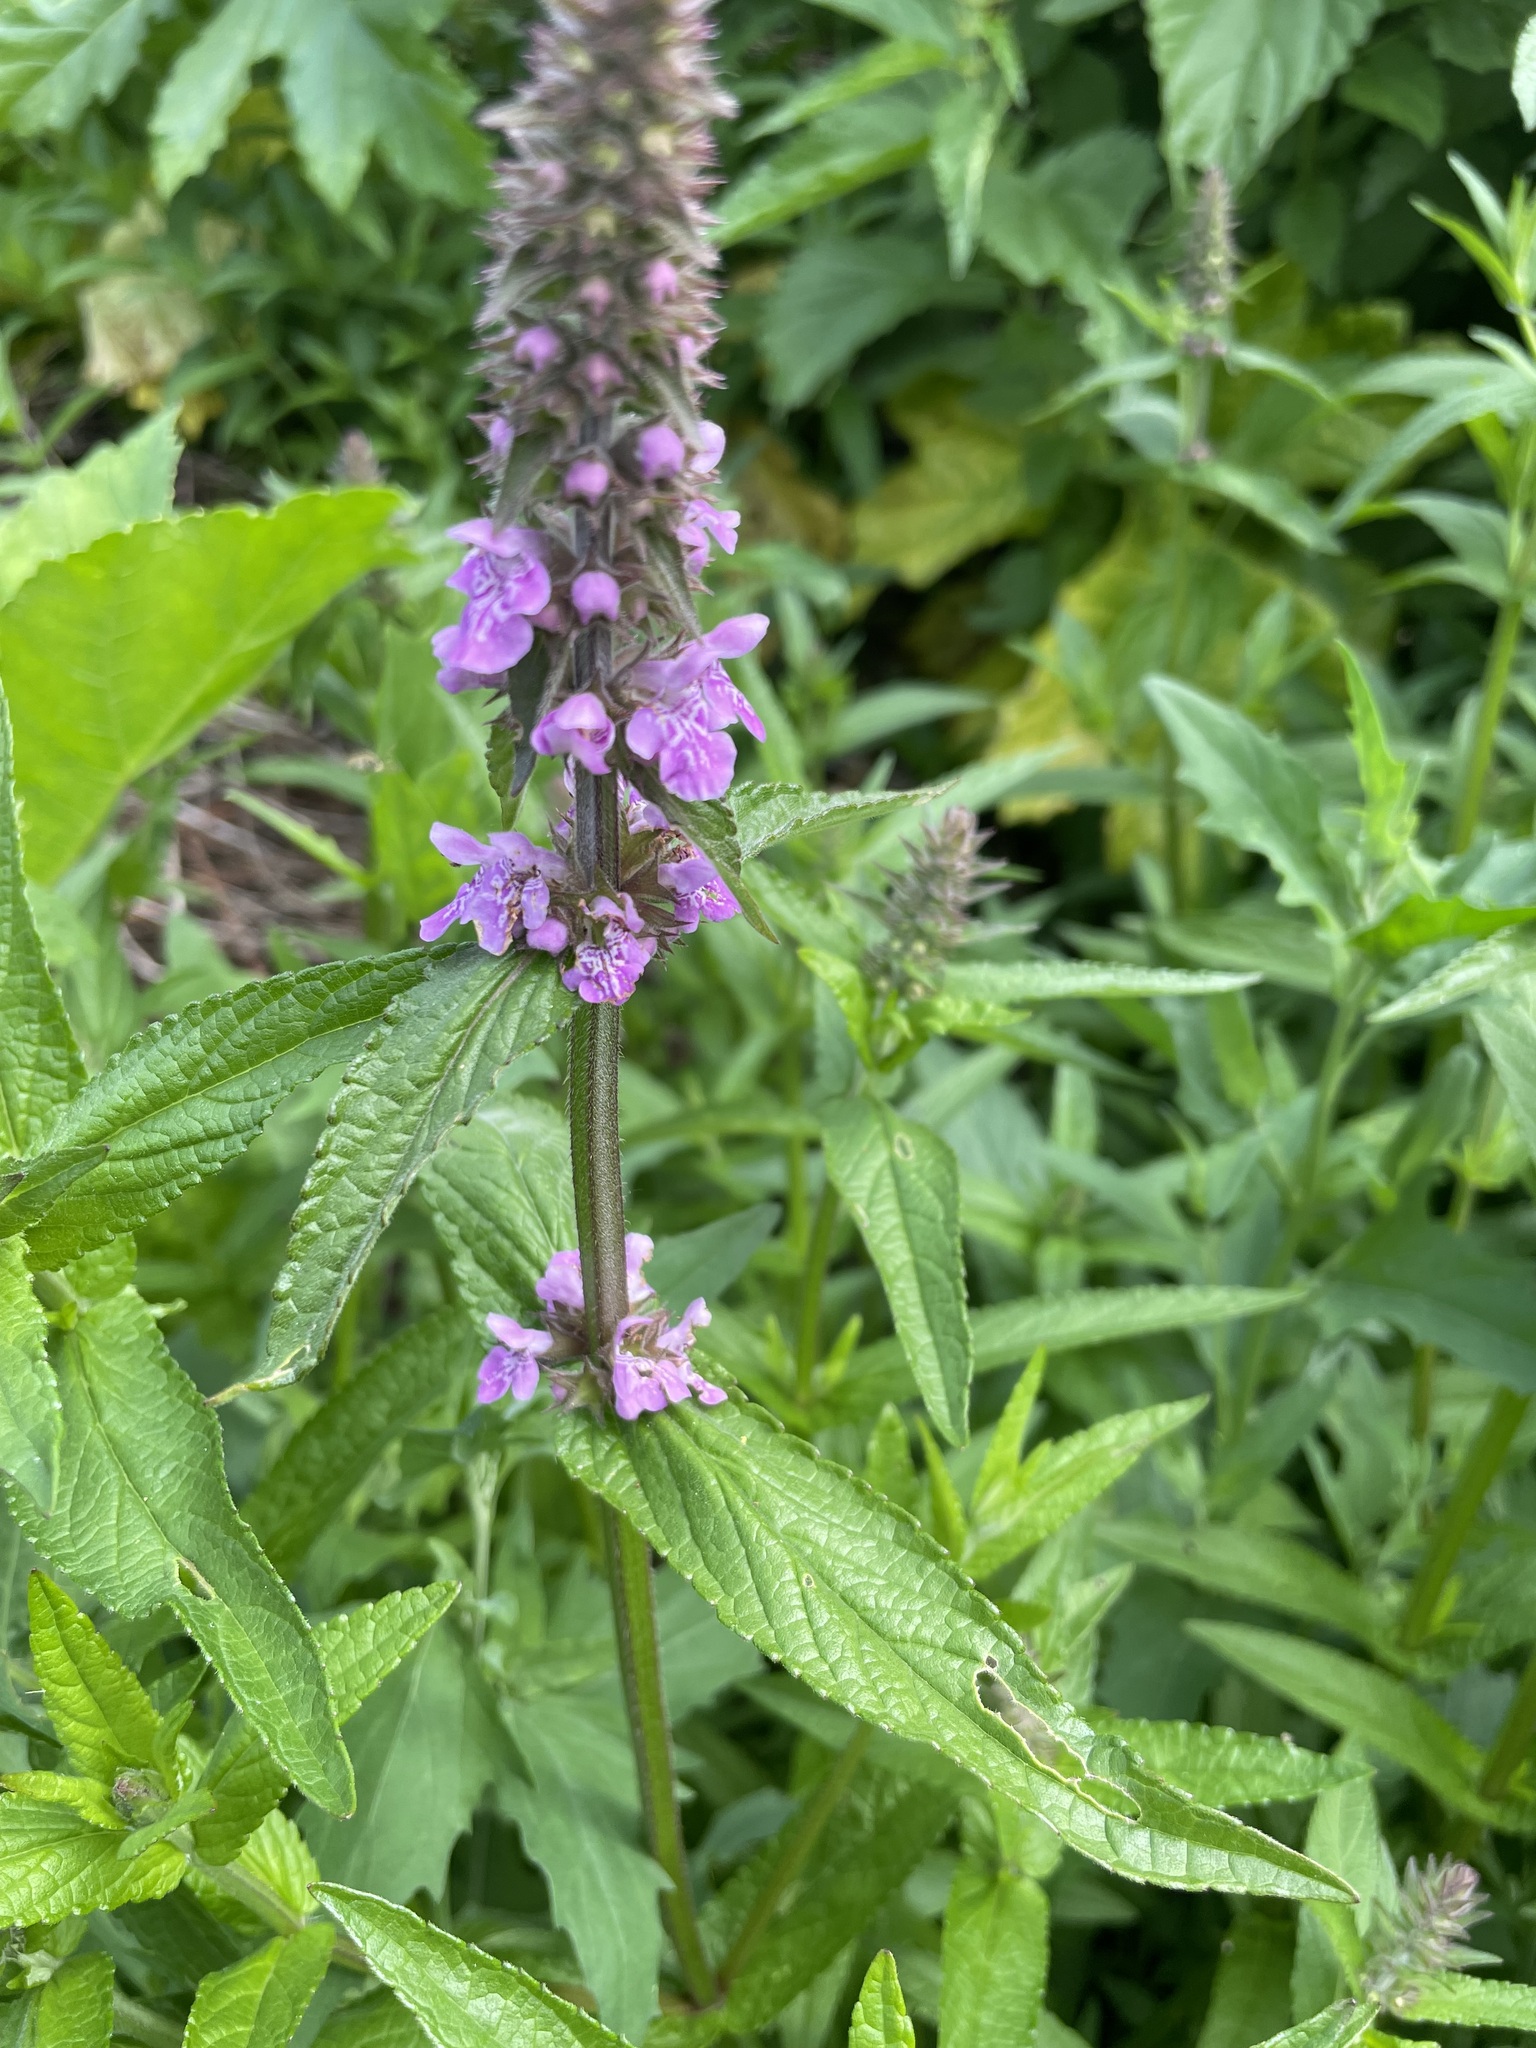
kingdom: Plantae
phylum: Tracheophyta
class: Magnoliopsida
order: Lamiales
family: Lamiaceae
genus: Stachys
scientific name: Stachys palustris
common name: Marsh woundwort
